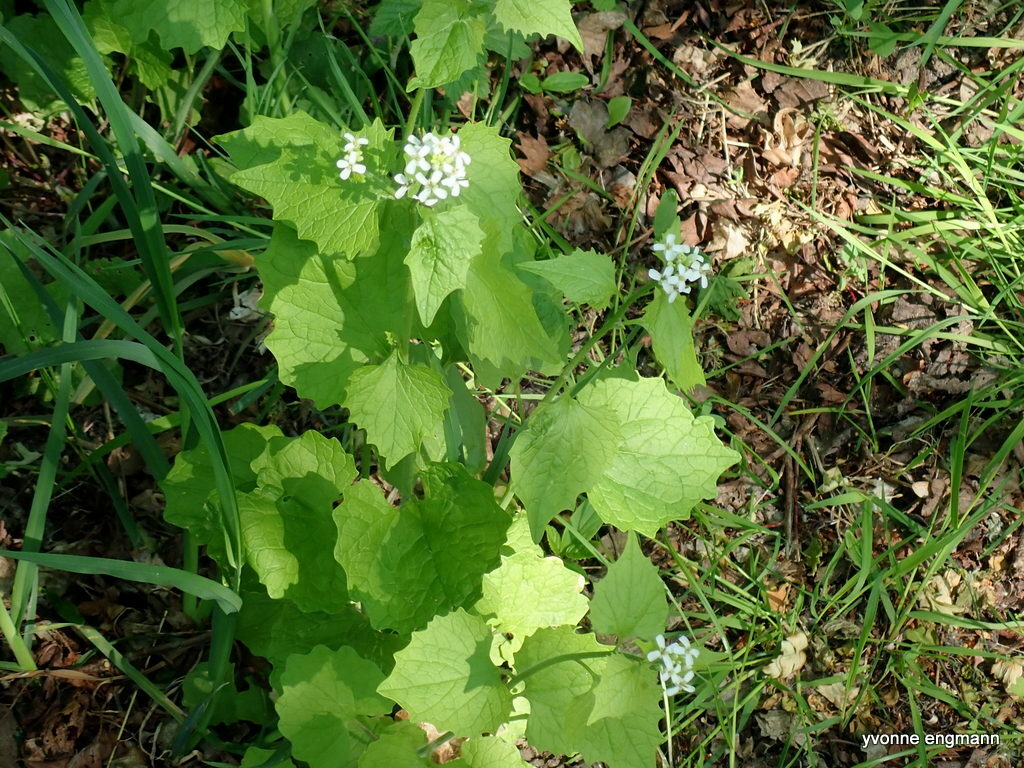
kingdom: Plantae
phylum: Tracheophyta
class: Magnoliopsida
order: Brassicales
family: Brassicaceae
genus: Alliaria
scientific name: Alliaria petiolata
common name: Garlic mustard
